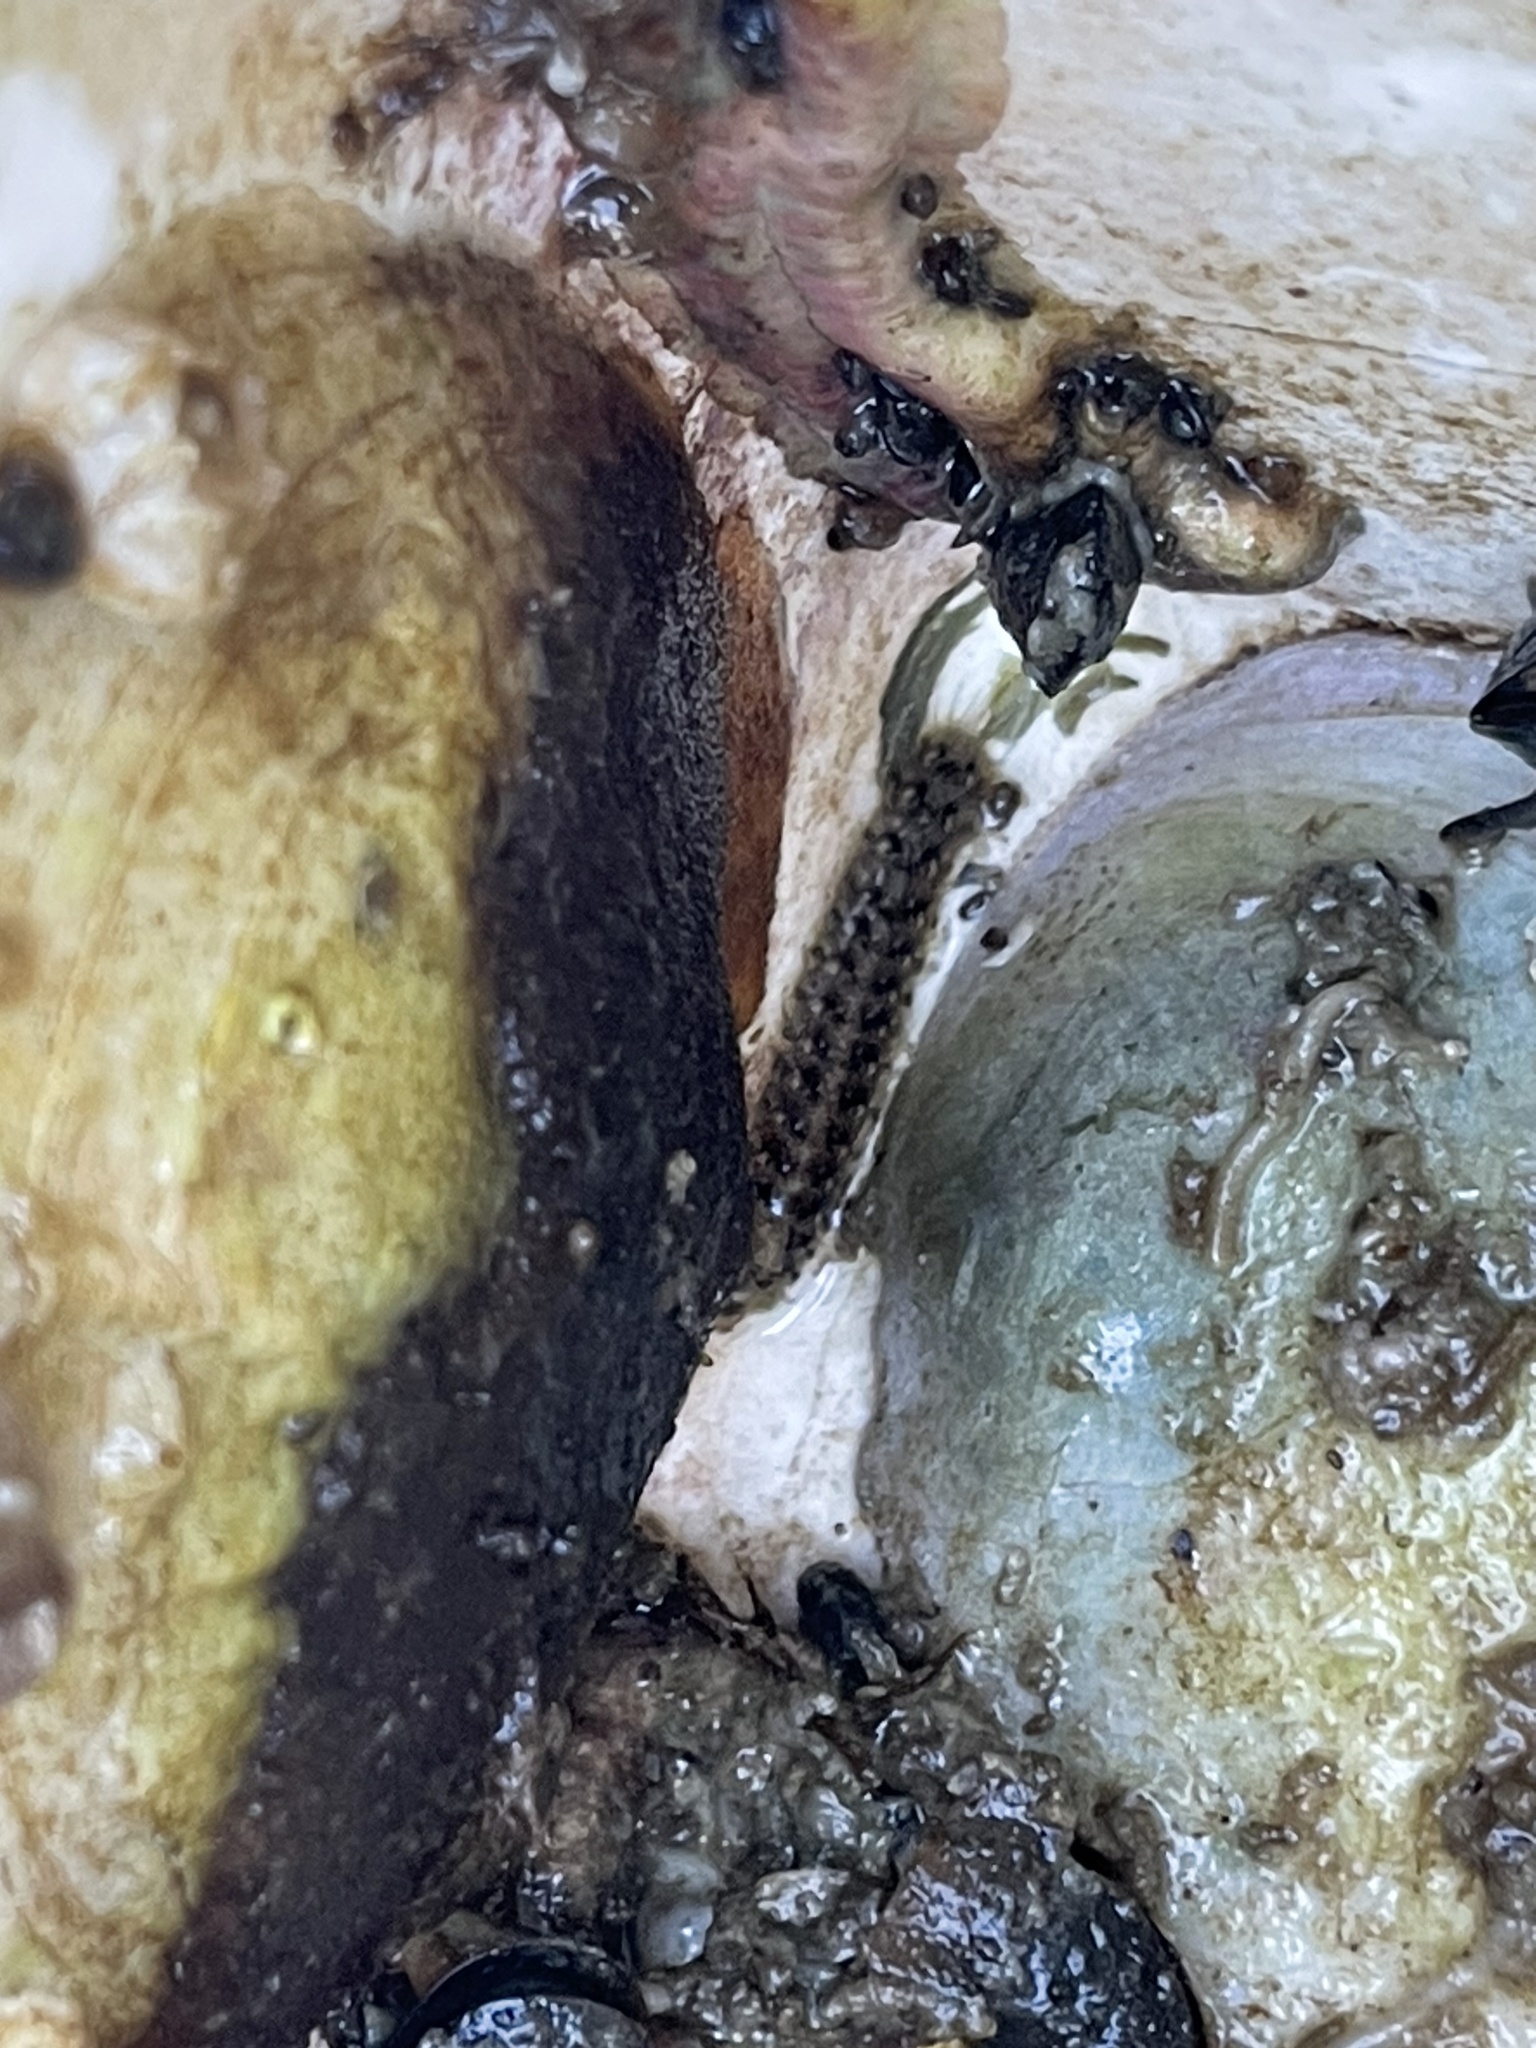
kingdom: Animalia
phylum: Annelida
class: Polychaeta
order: Phyllodocida
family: Polynoidae
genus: Halosydna
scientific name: Halosydna brevisetosa
